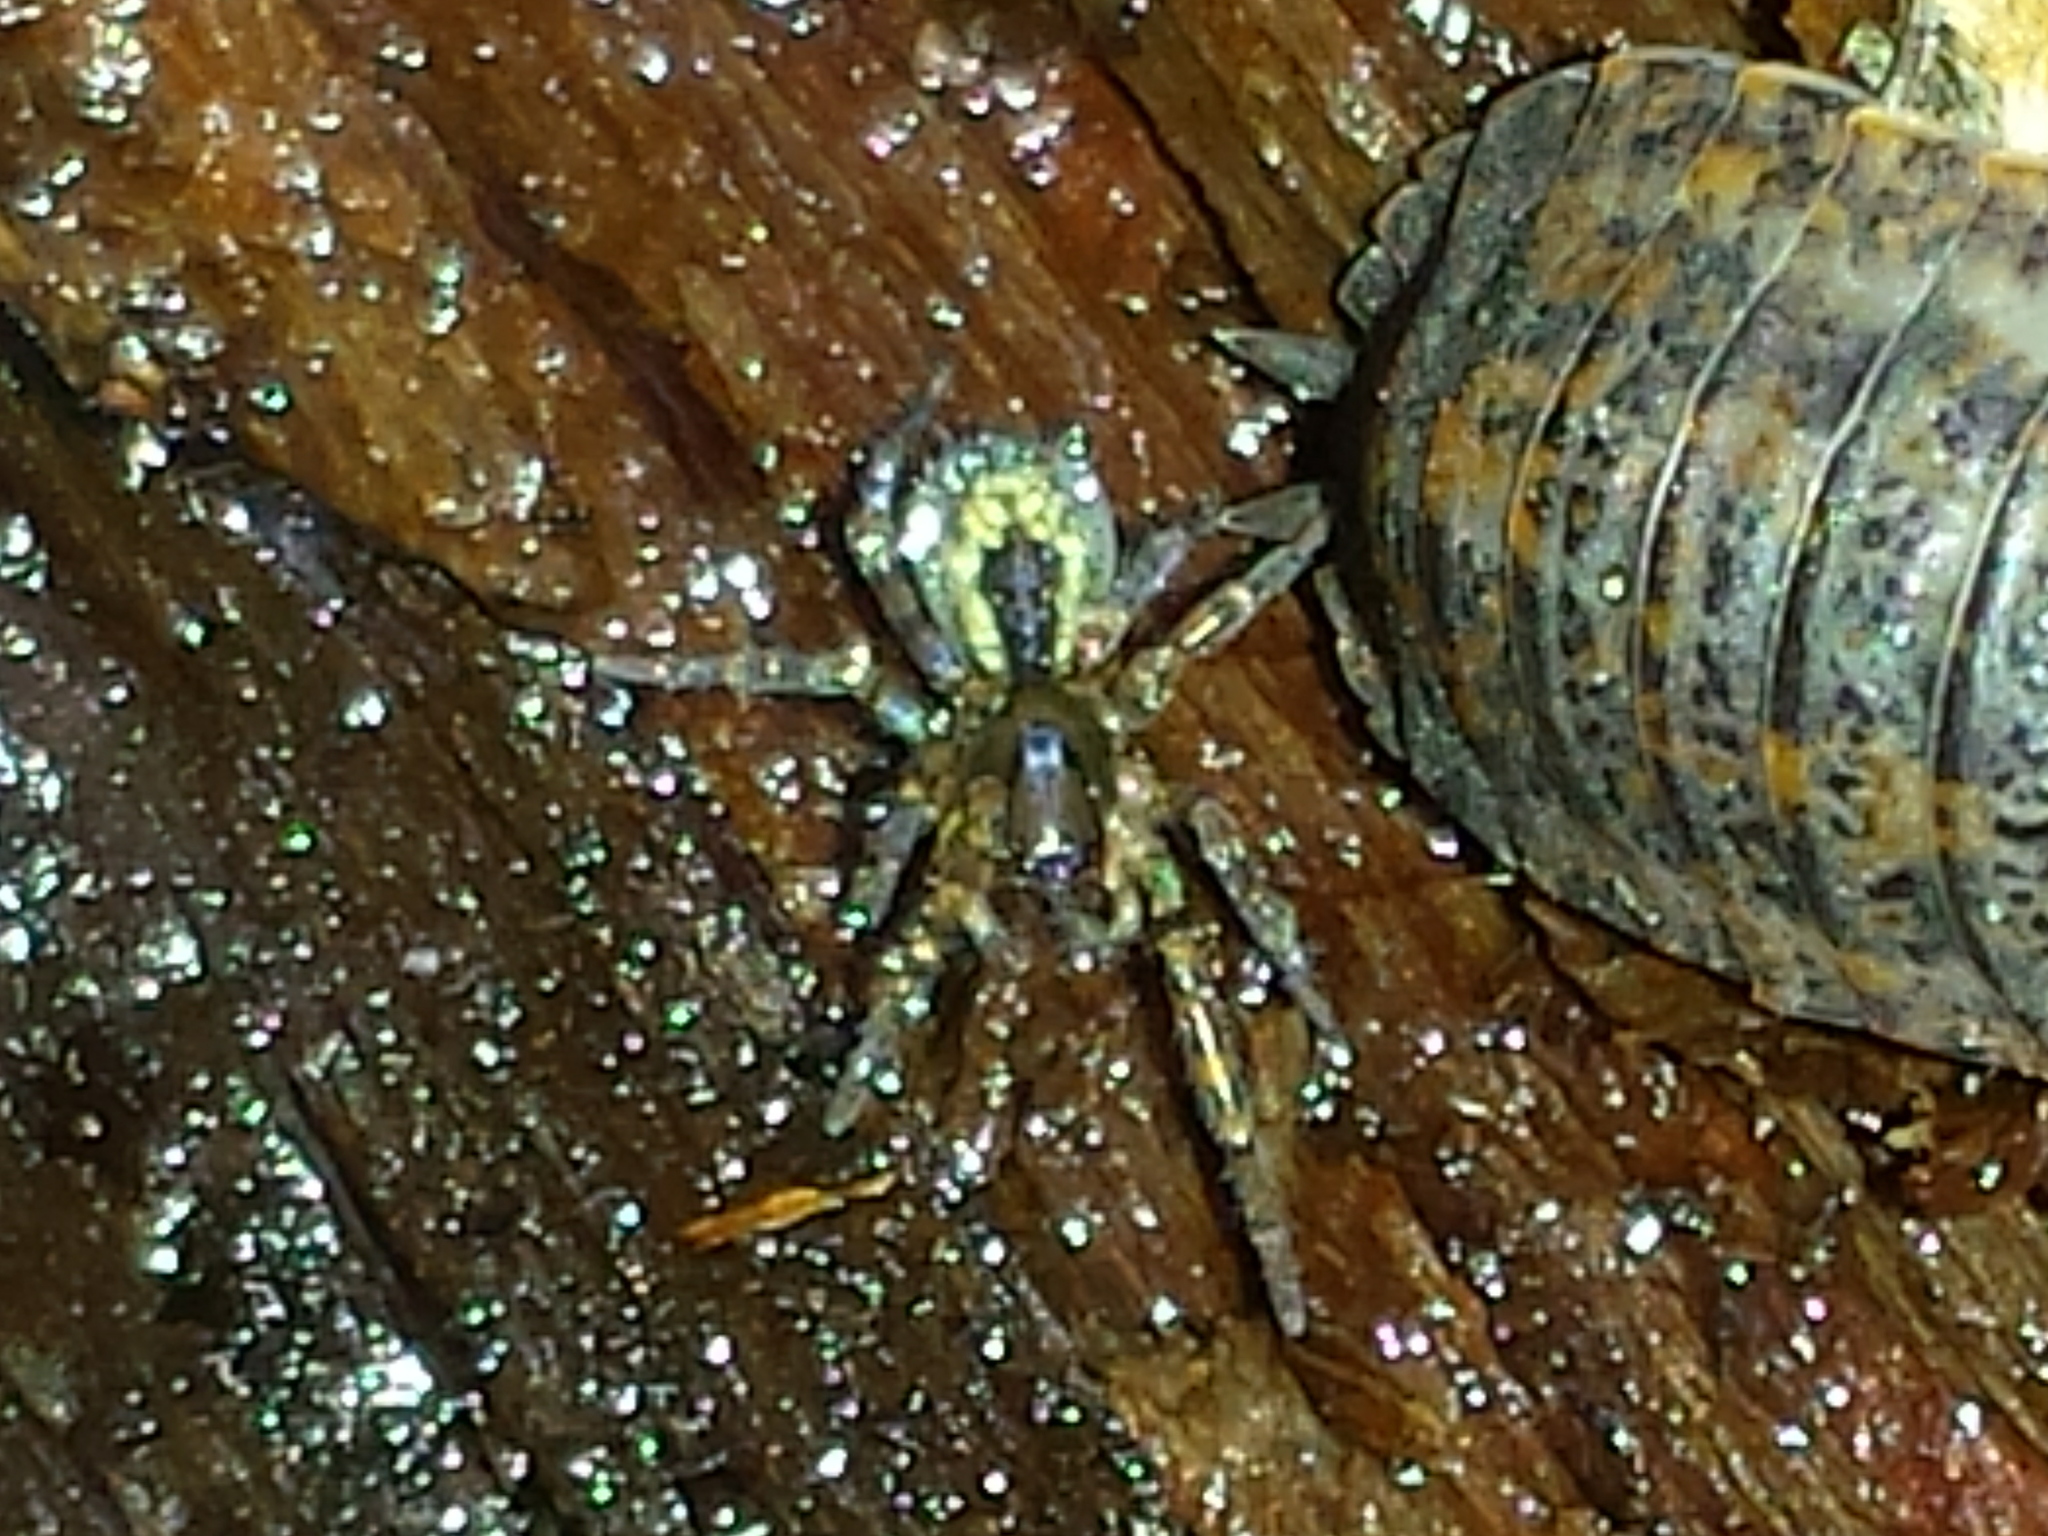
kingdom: Animalia
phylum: Arthropoda
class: Arachnida
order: Araneae
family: Amaurobiidae
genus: Amaurobius
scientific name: Amaurobius fenestralis
